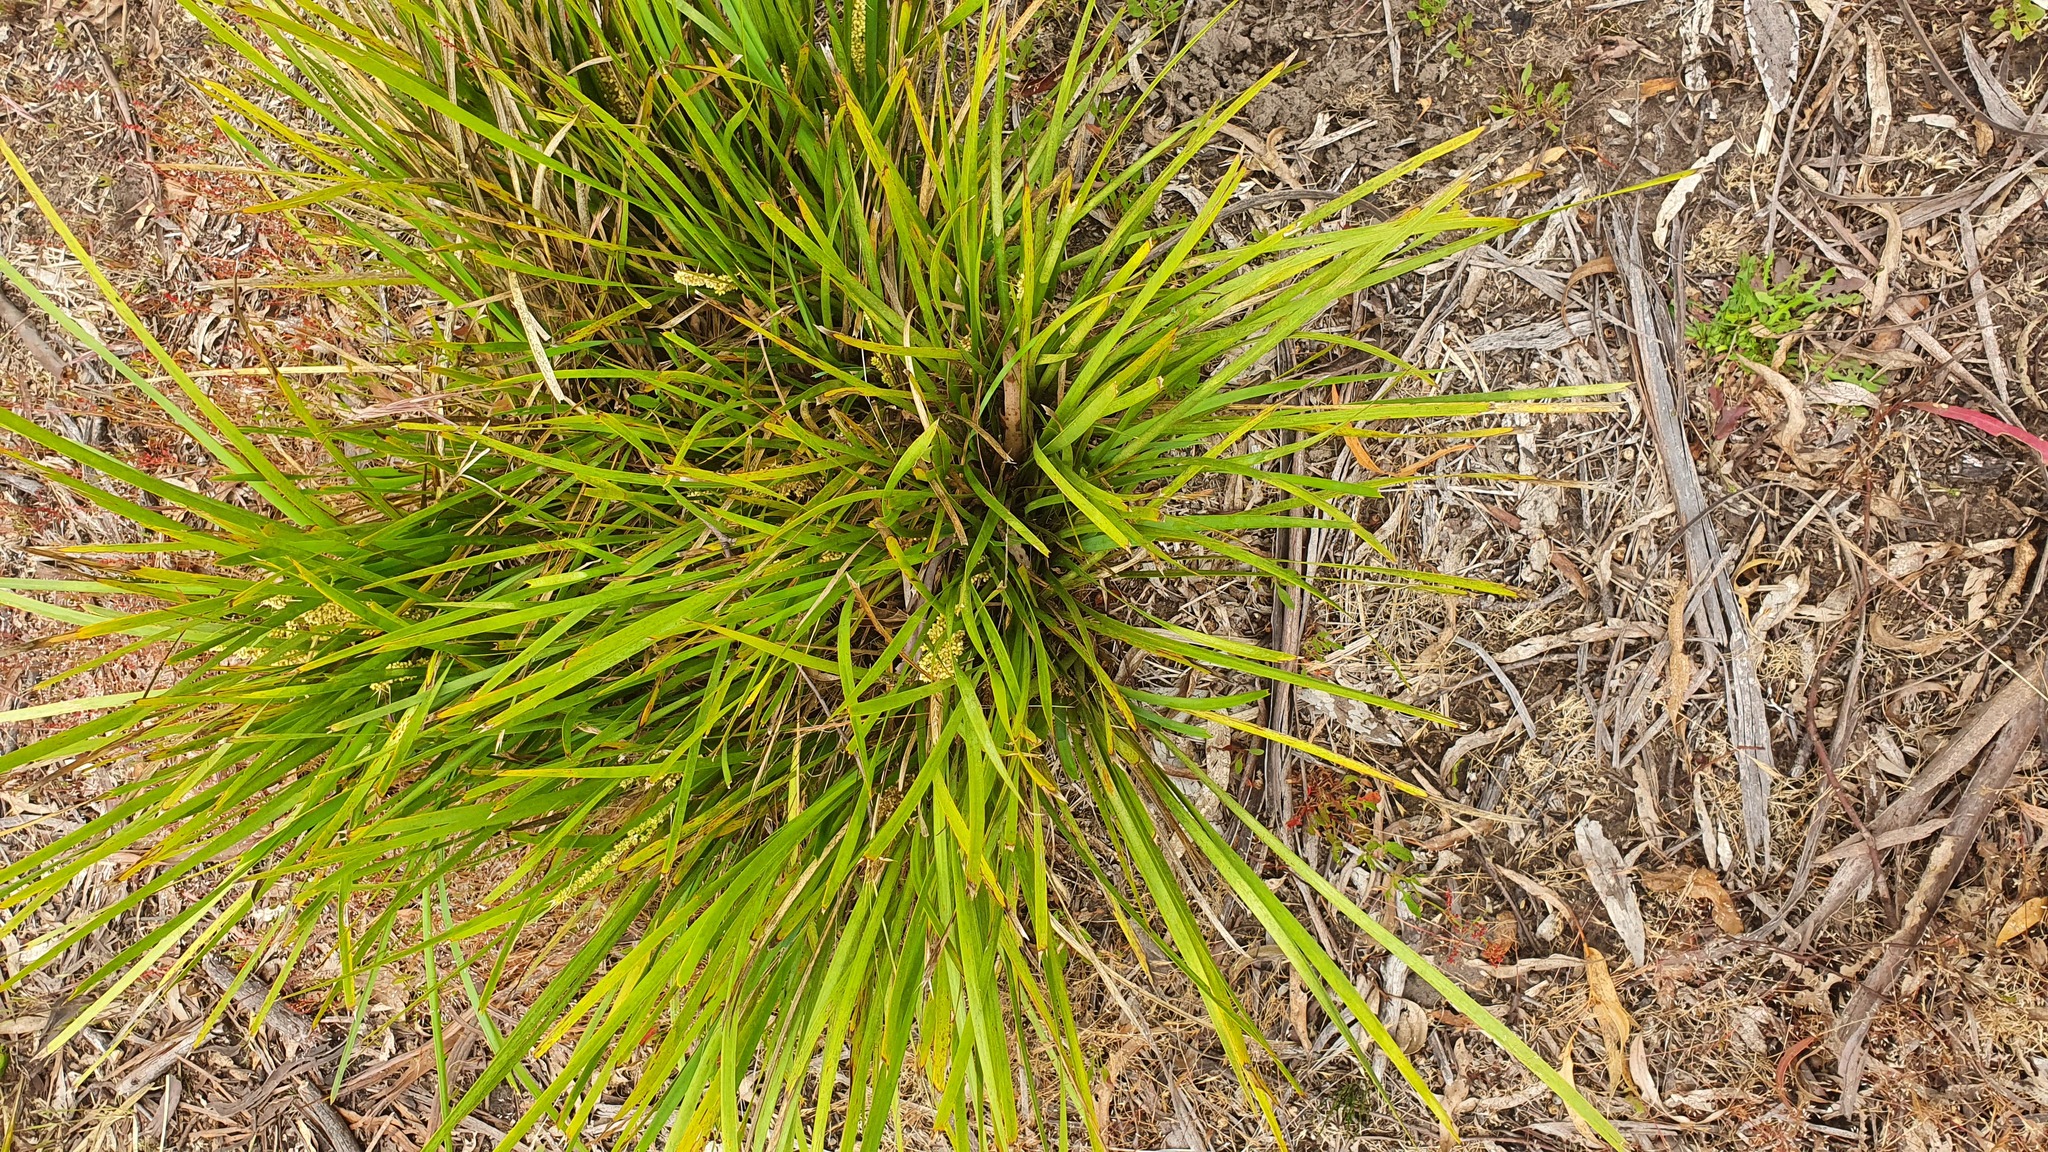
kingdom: Plantae
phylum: Tracheophyta
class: Liliopsida
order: Asparagales
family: Asparagaceae
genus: Lomandra
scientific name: Lomandra longifolia
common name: Longleaf mat-rush
